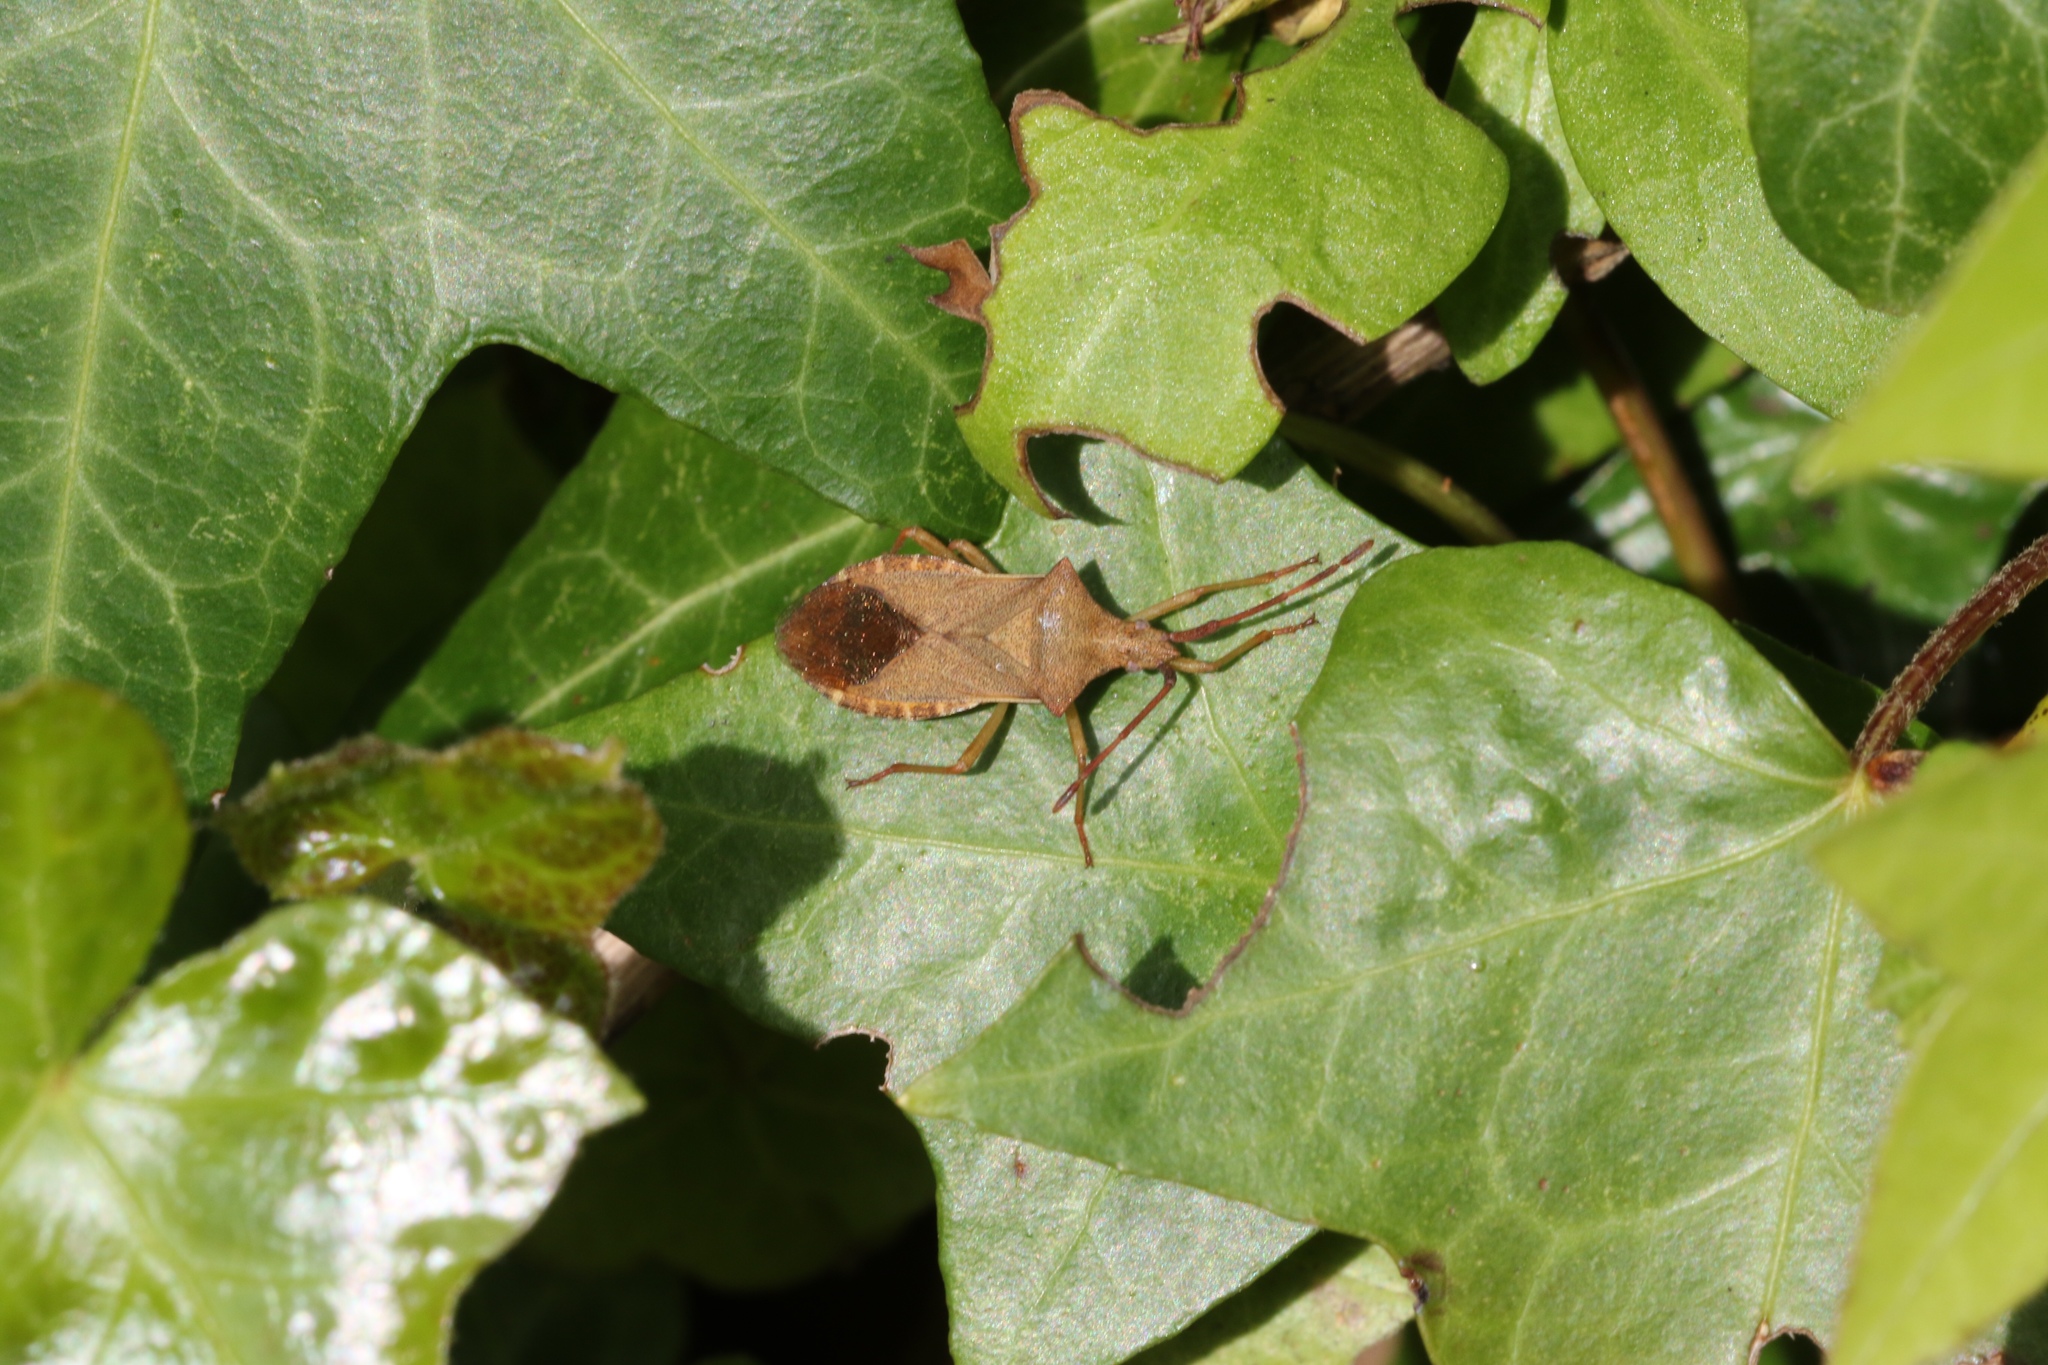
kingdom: Animalia
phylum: Arthropoda
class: Insecta
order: Hemiptera
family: Coreidae
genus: Gonocerus
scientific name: Gonocerus acuteangulatus
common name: Box bug
